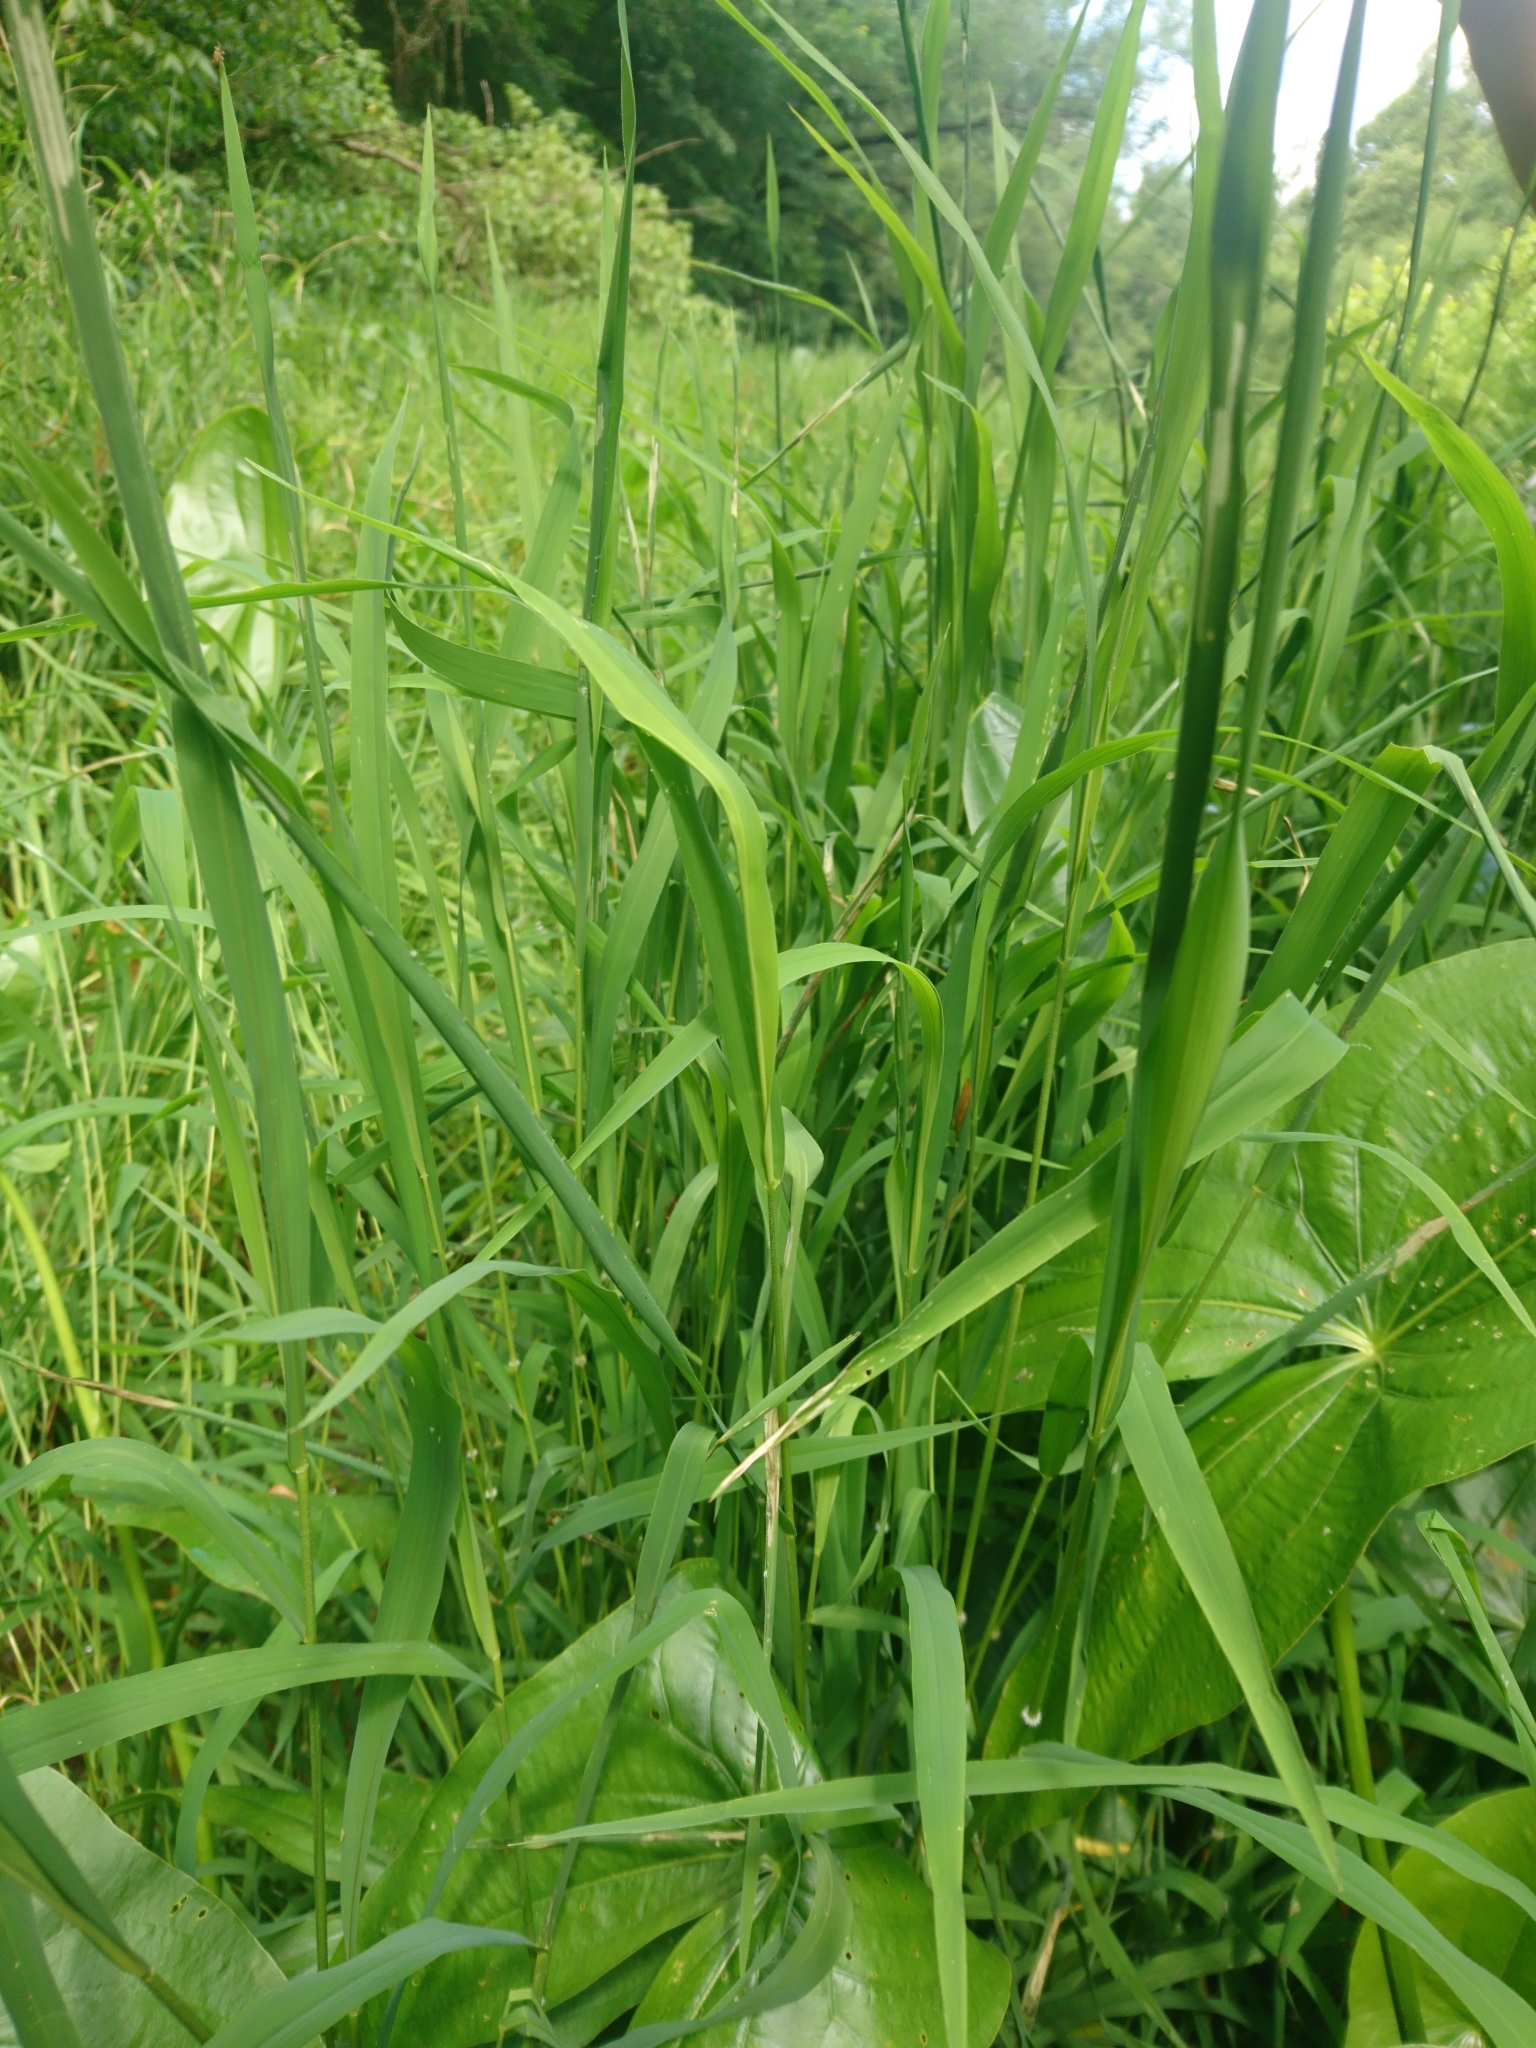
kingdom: Plantae
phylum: Tracheophyta
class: Liliopsida
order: Poales
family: Poaceae
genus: Leersia
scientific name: Leersia oryzoides
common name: Cut-grass
